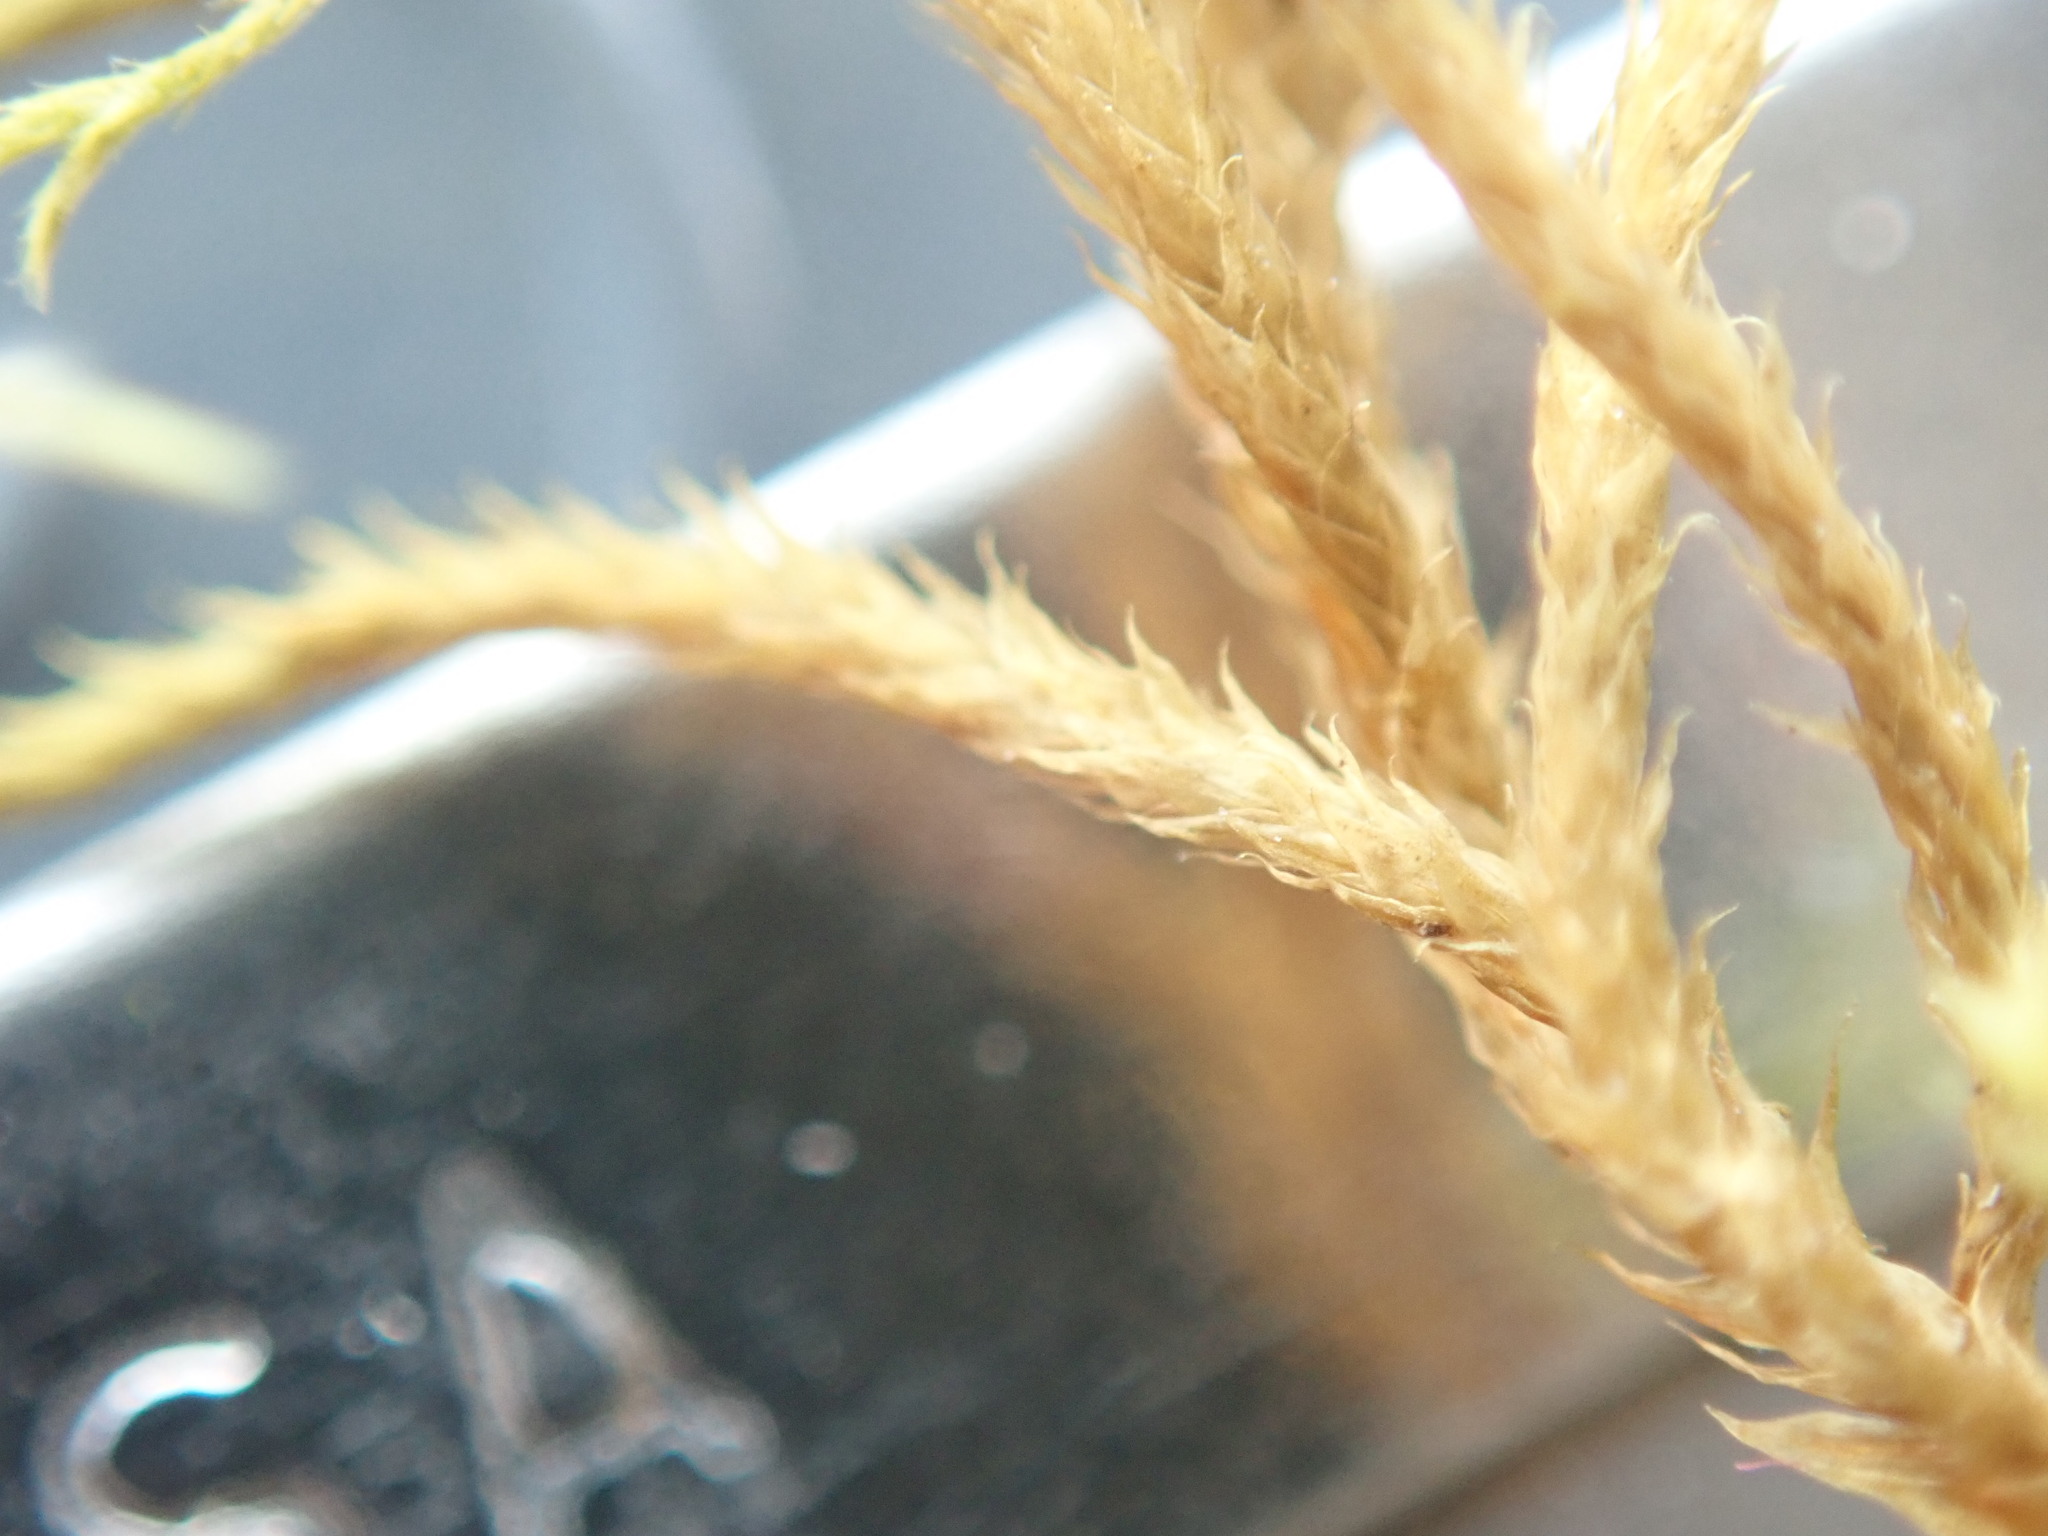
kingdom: Plantae
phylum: Bryophyta
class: Bryopsida
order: Hypnales
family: Antitrichiaceae
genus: Antitrichia
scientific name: Antitrichia californica
